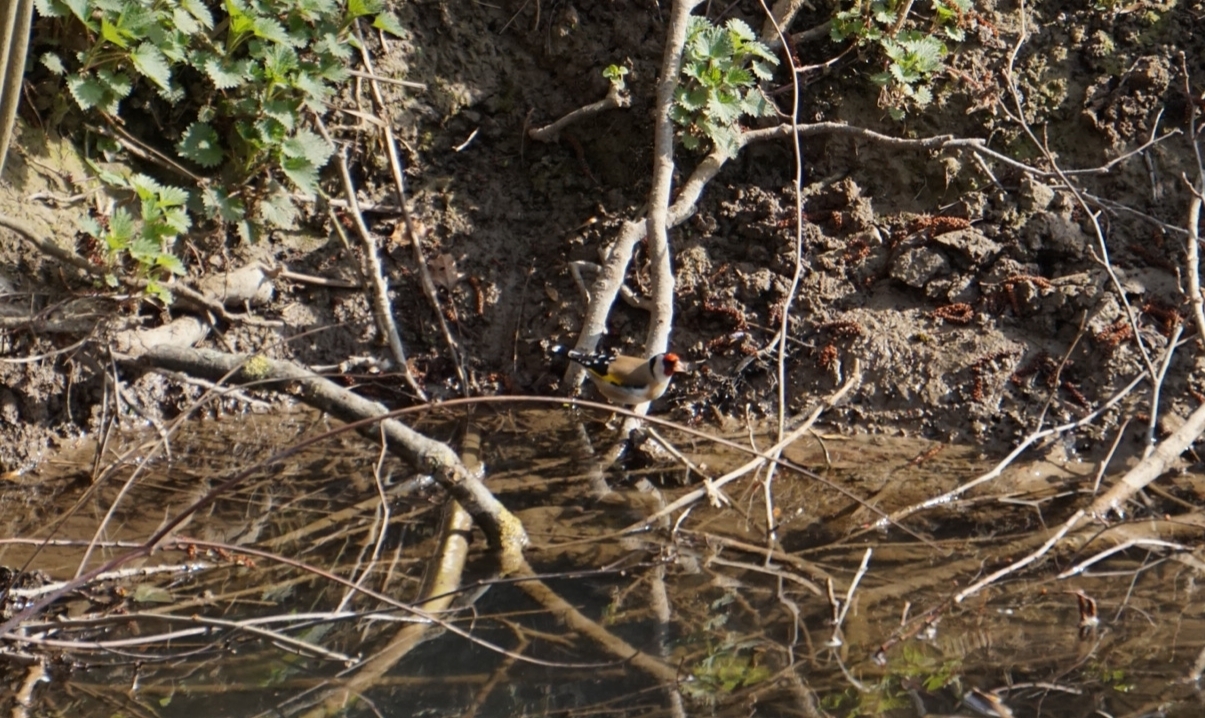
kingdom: Animalia
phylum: Chordata
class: Aves
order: Passeriformes
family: Fringillidae
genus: Carduelis
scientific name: Carduelis carduelis
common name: European goldfinch
